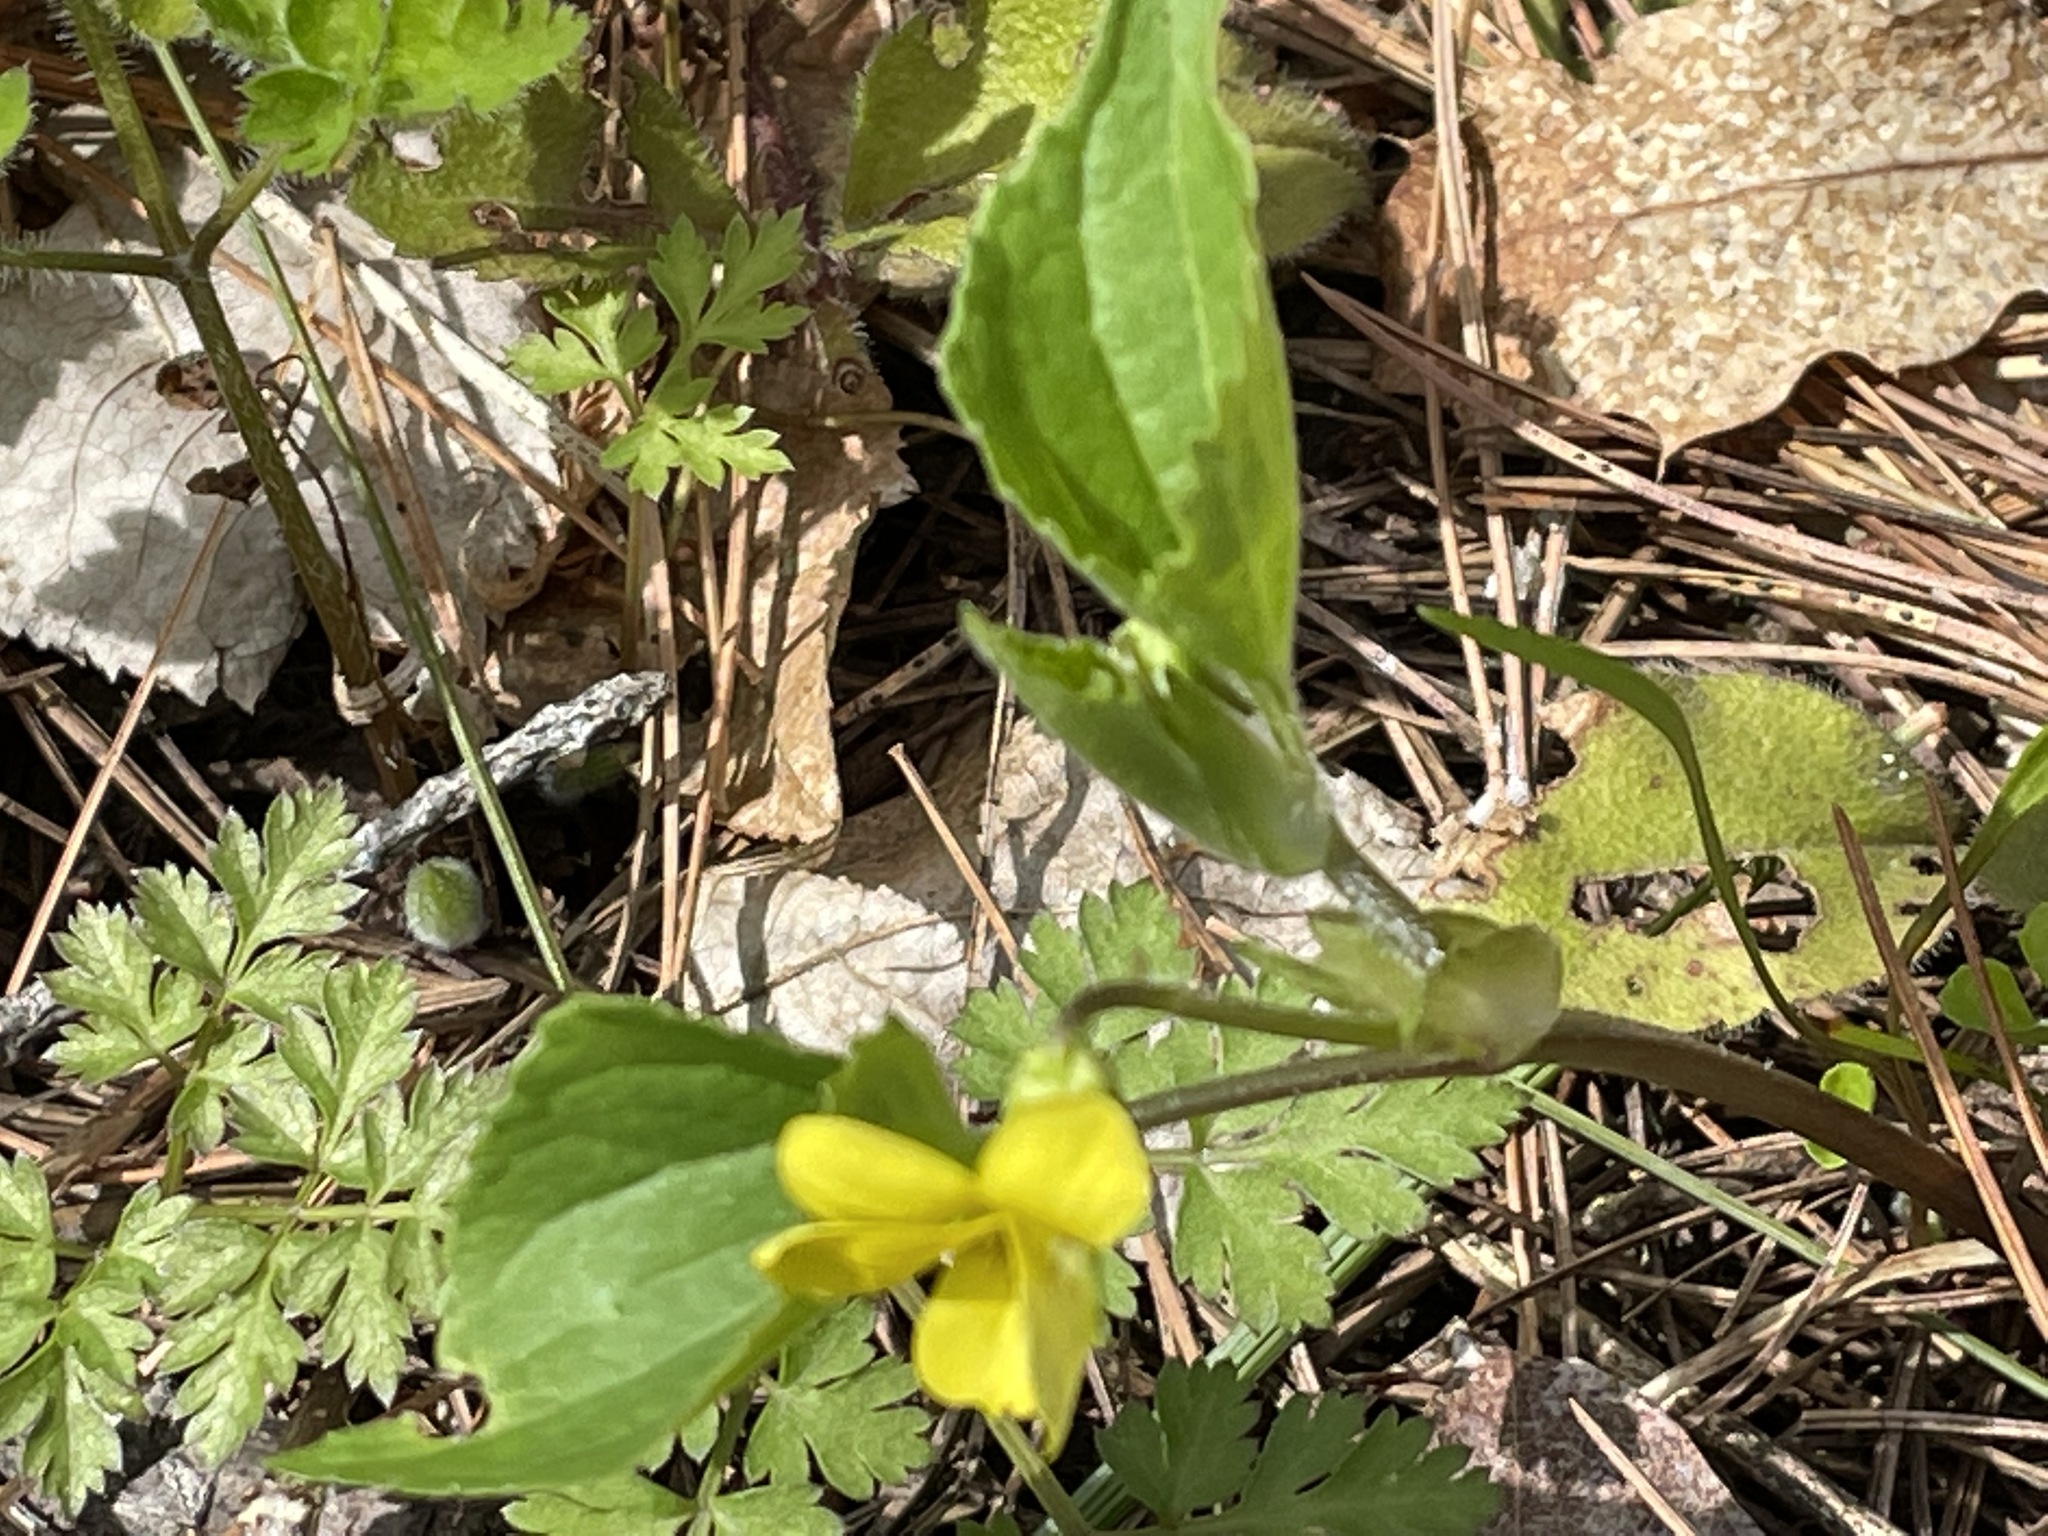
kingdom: Plantae
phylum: Tracheophyta
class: Magnoliopsida
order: Malpighiales
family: Violaceae
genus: Viola
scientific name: Viola eriocarpa
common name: Smooth yellow violet
